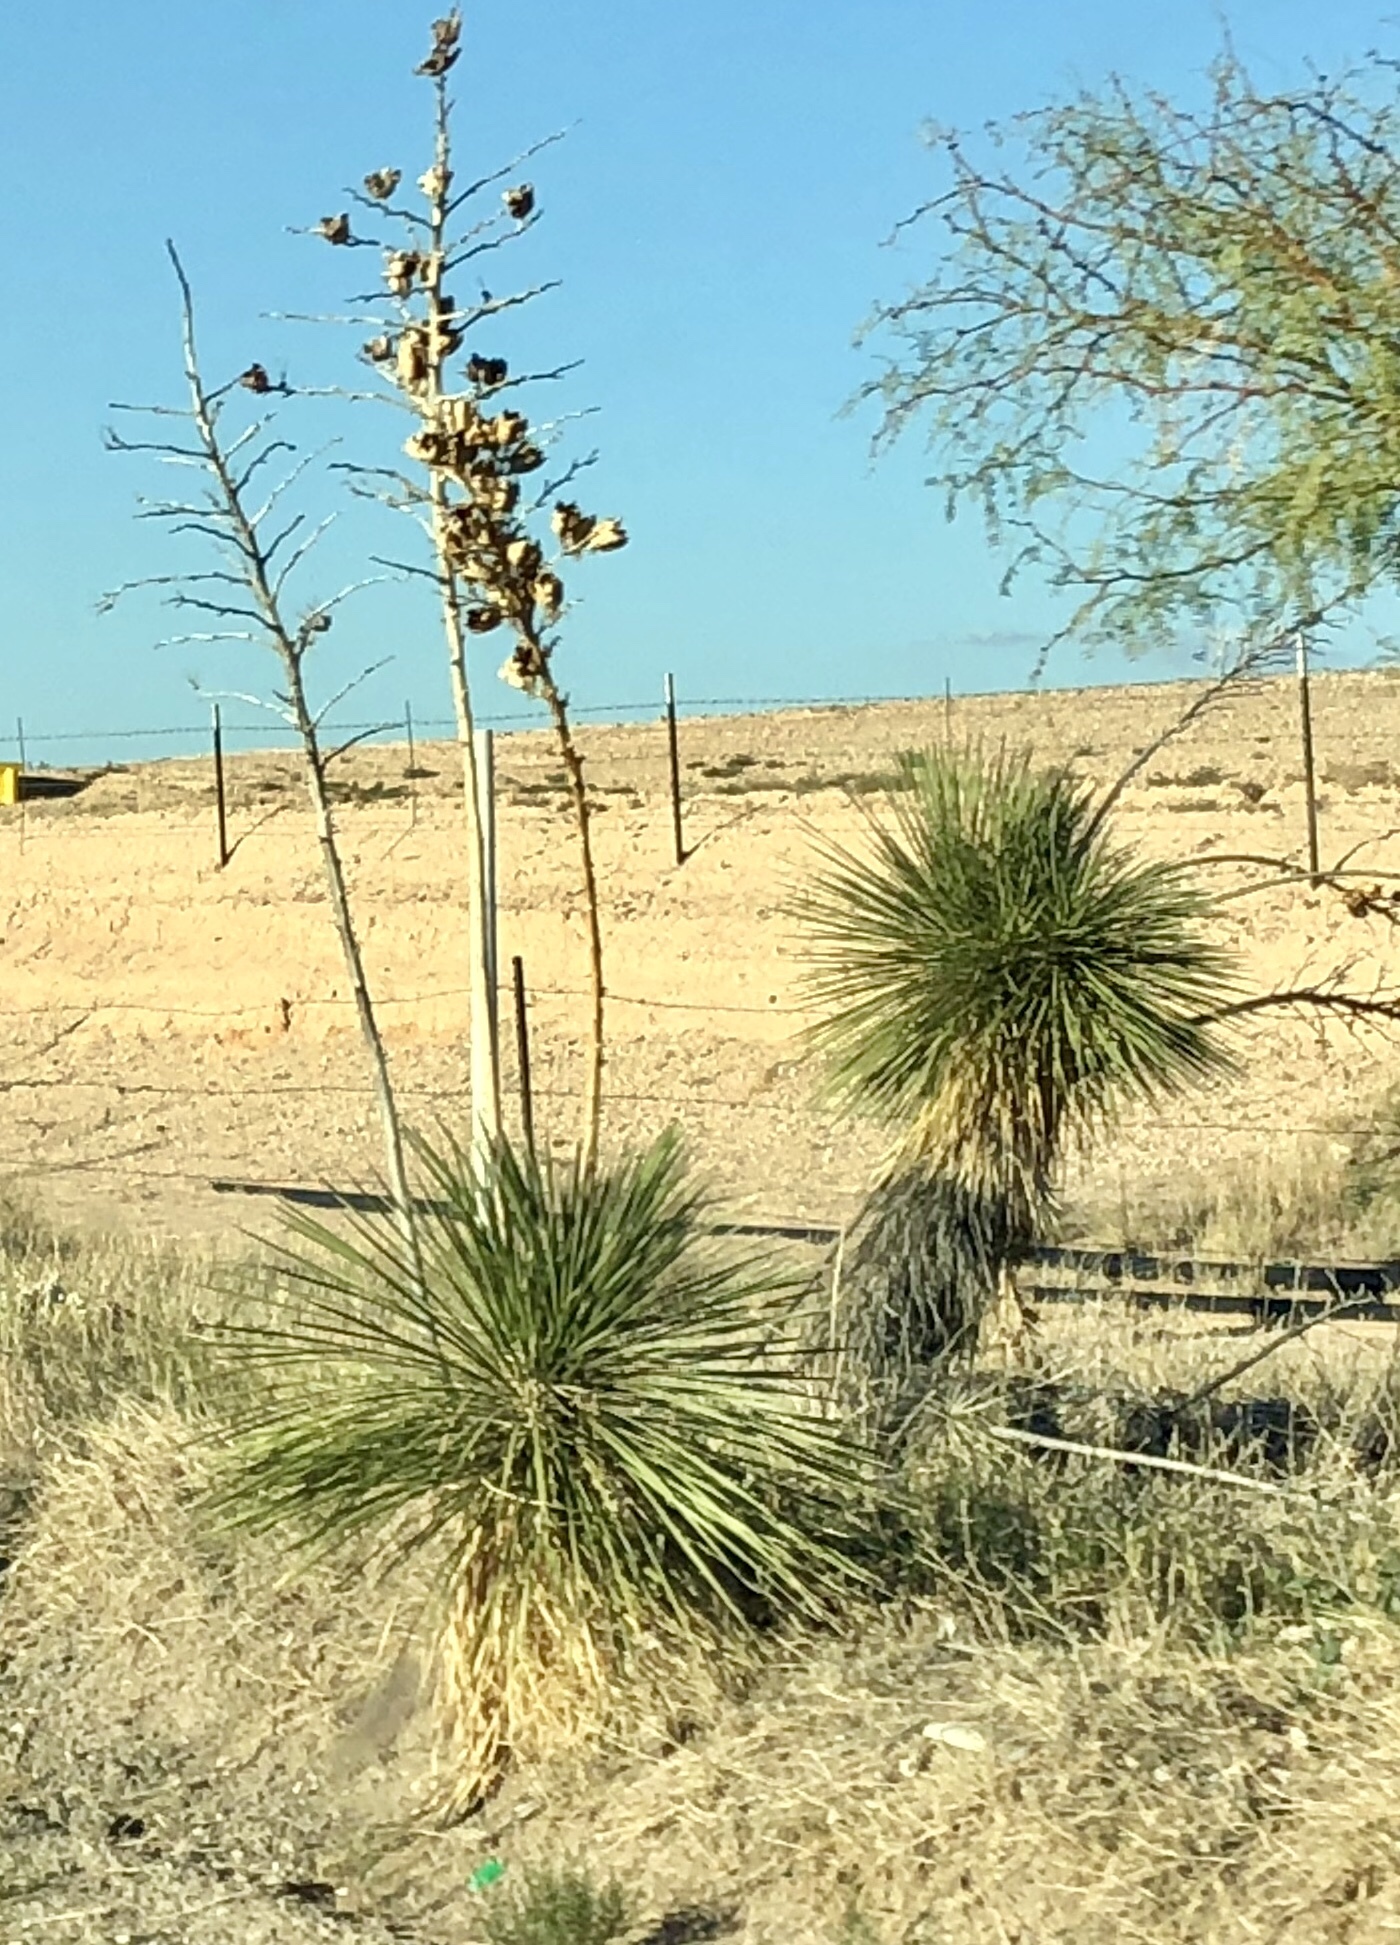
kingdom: Plantae
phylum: Tracheophyta
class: Liliopsida
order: Asparagales
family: Asparagaceae
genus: Yucca
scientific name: Yucca elata
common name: Palmella
